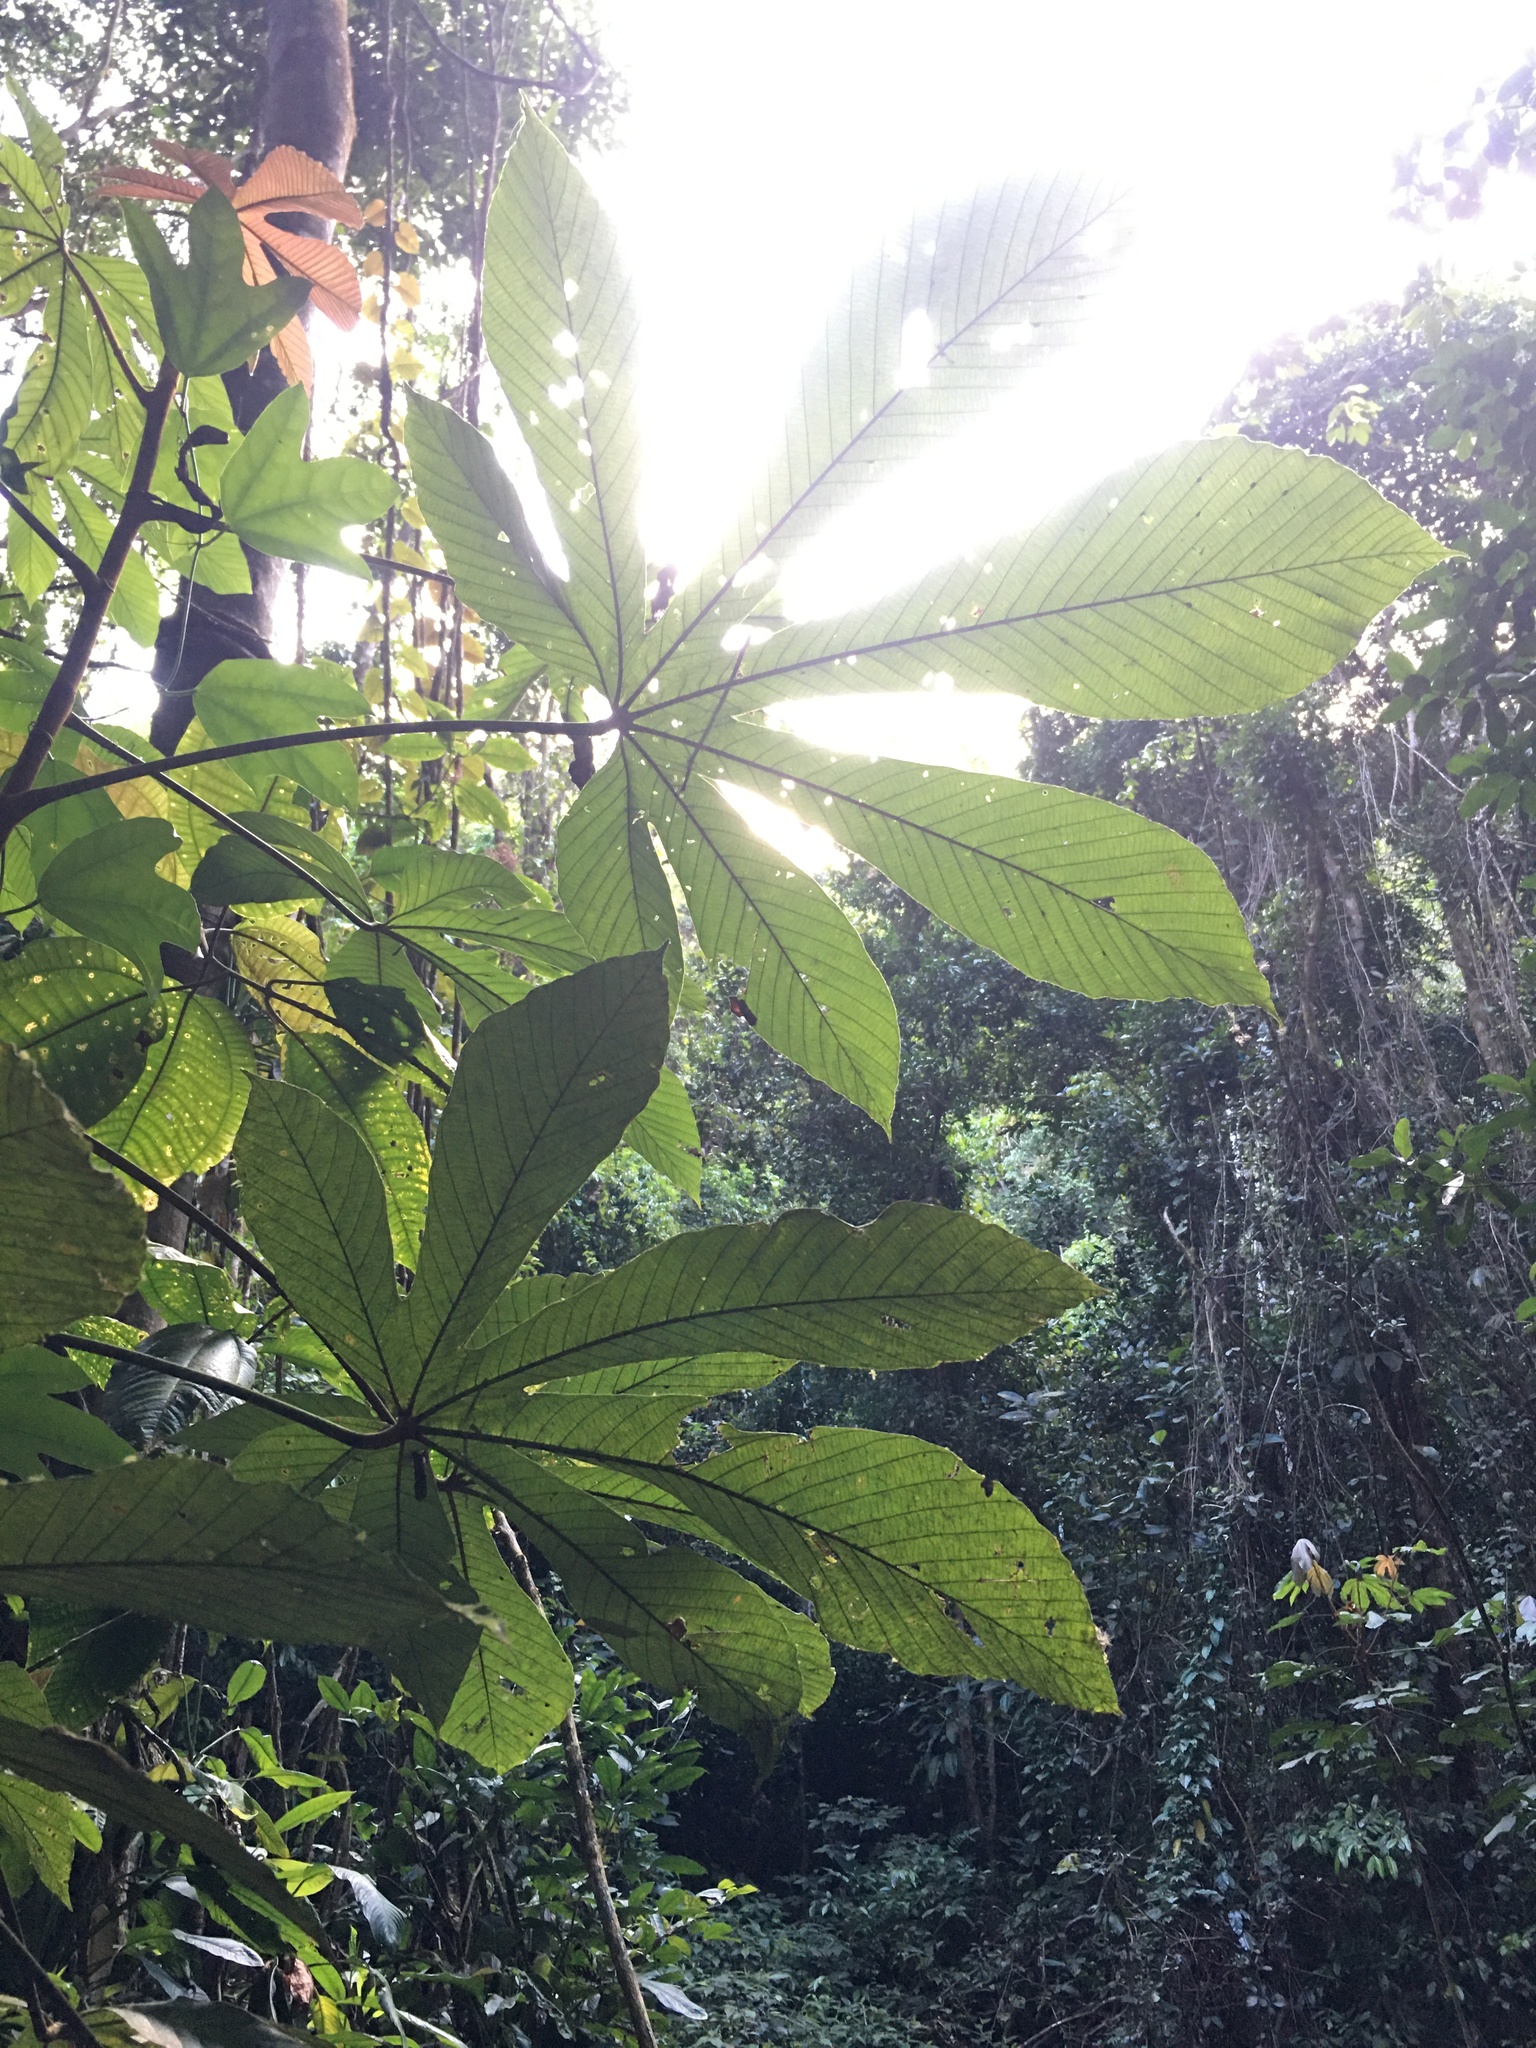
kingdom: Plantae
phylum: Tracheophyta
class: Magnoliopsida
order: Rosales
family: Urticaceae
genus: Pourouma
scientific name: Pourouma guianensis
